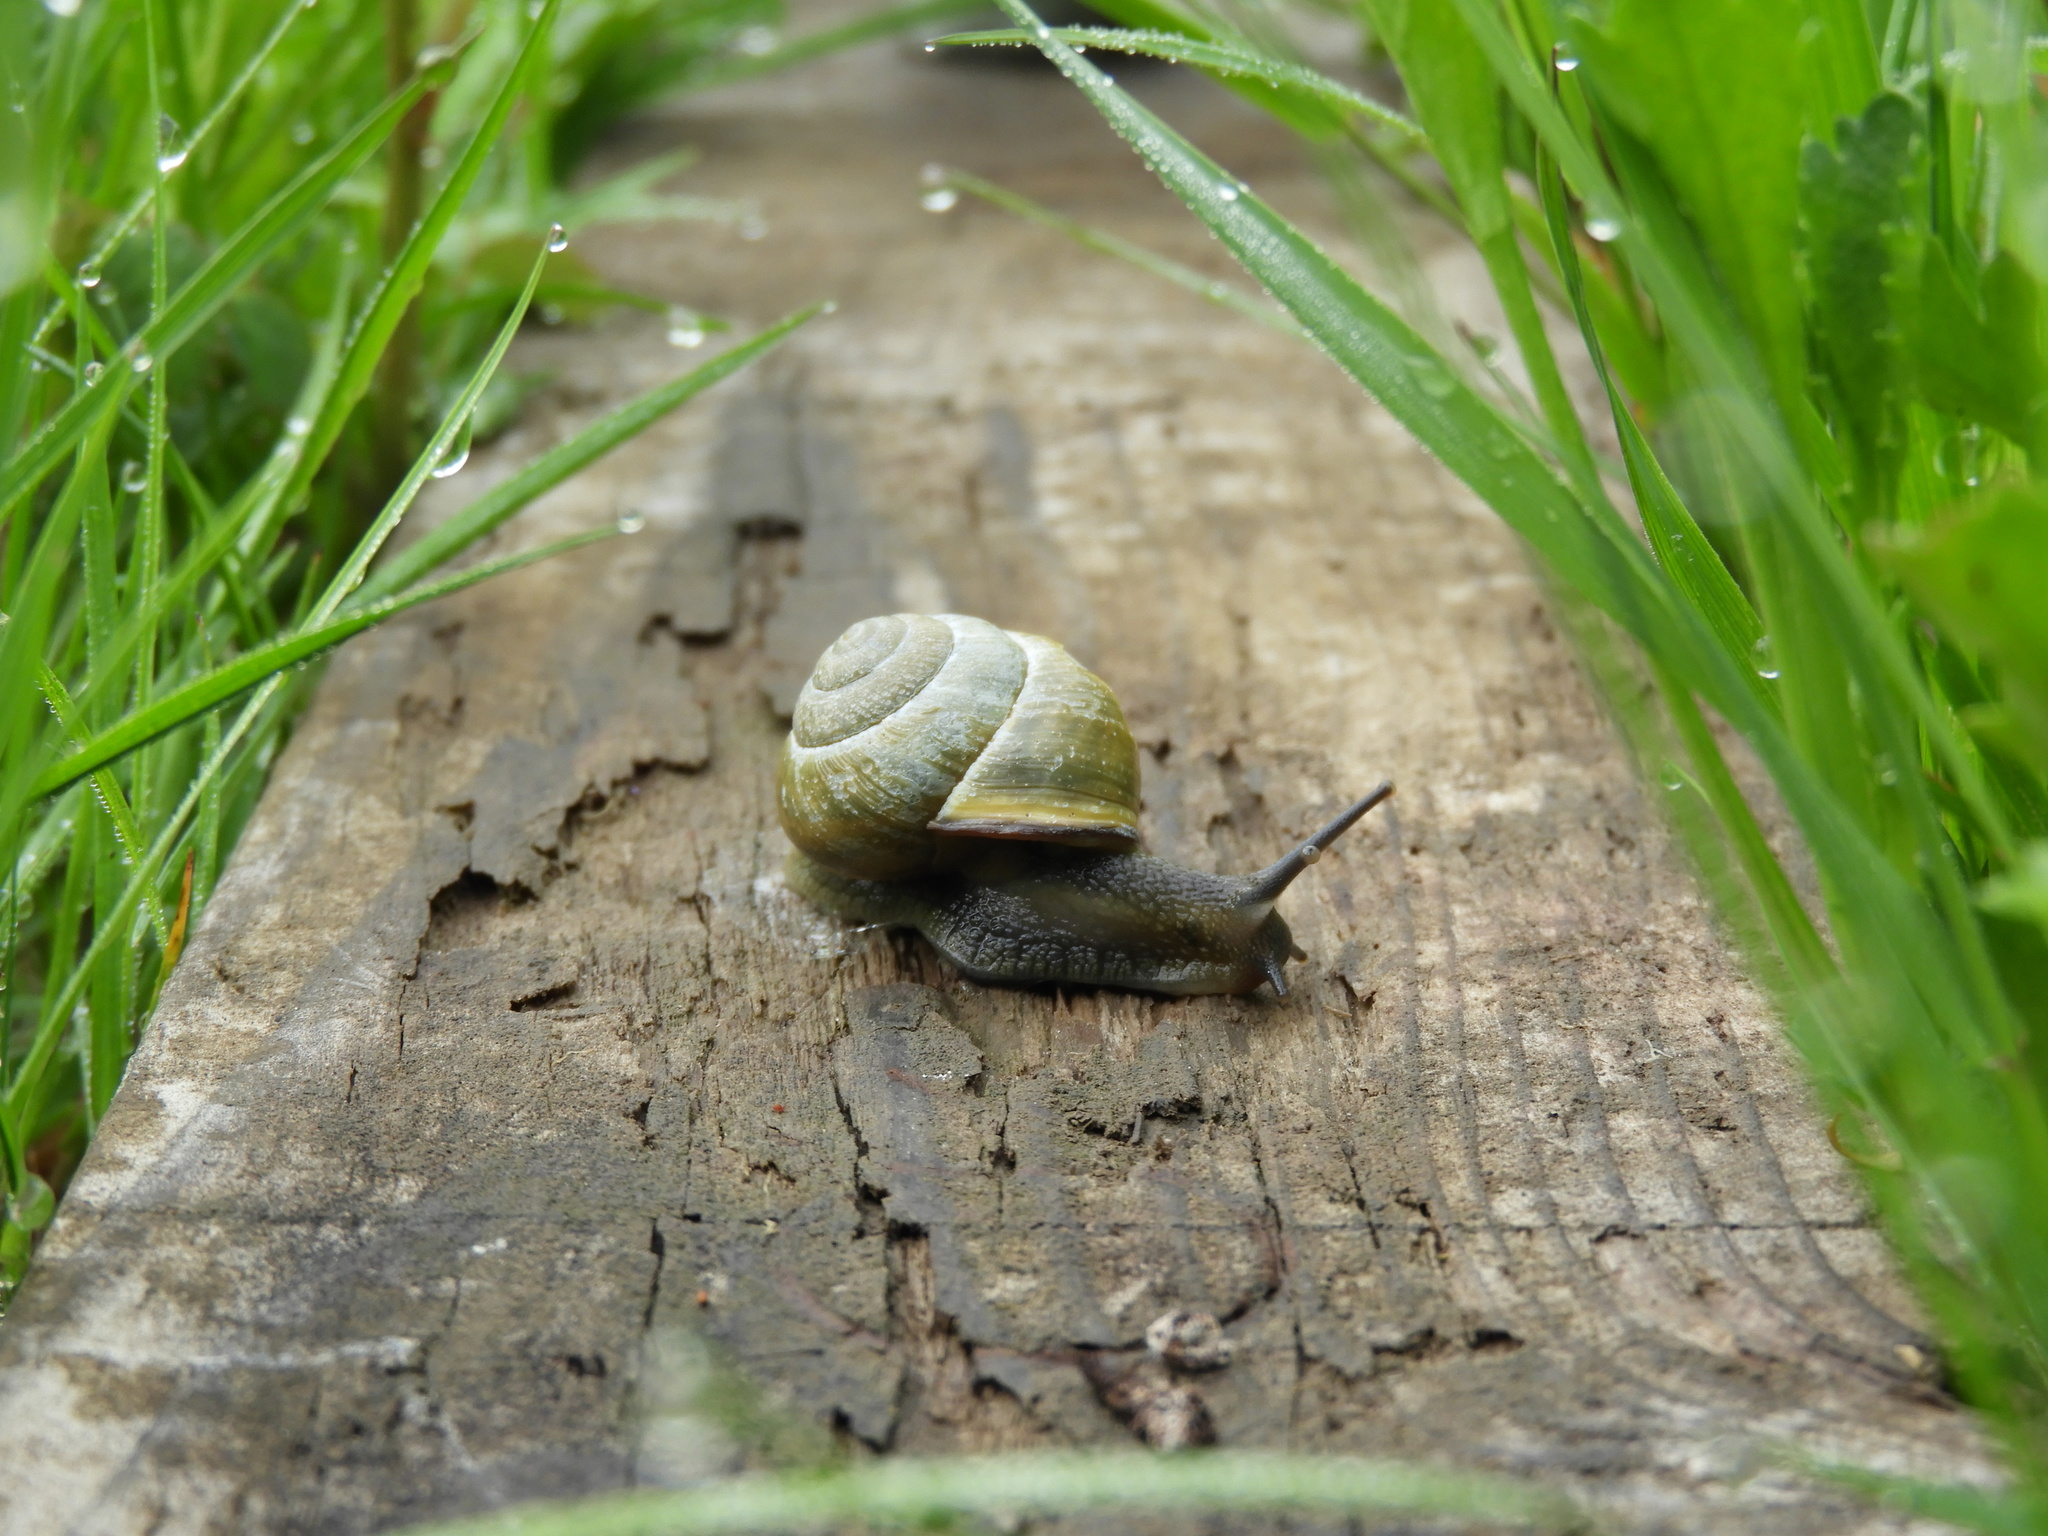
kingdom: Animalia
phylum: Mollusca
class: Gastropoda
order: Stylommatophora
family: Helicidae
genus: Cepaea
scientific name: Cepaea nemoralis
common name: Grovesnail
